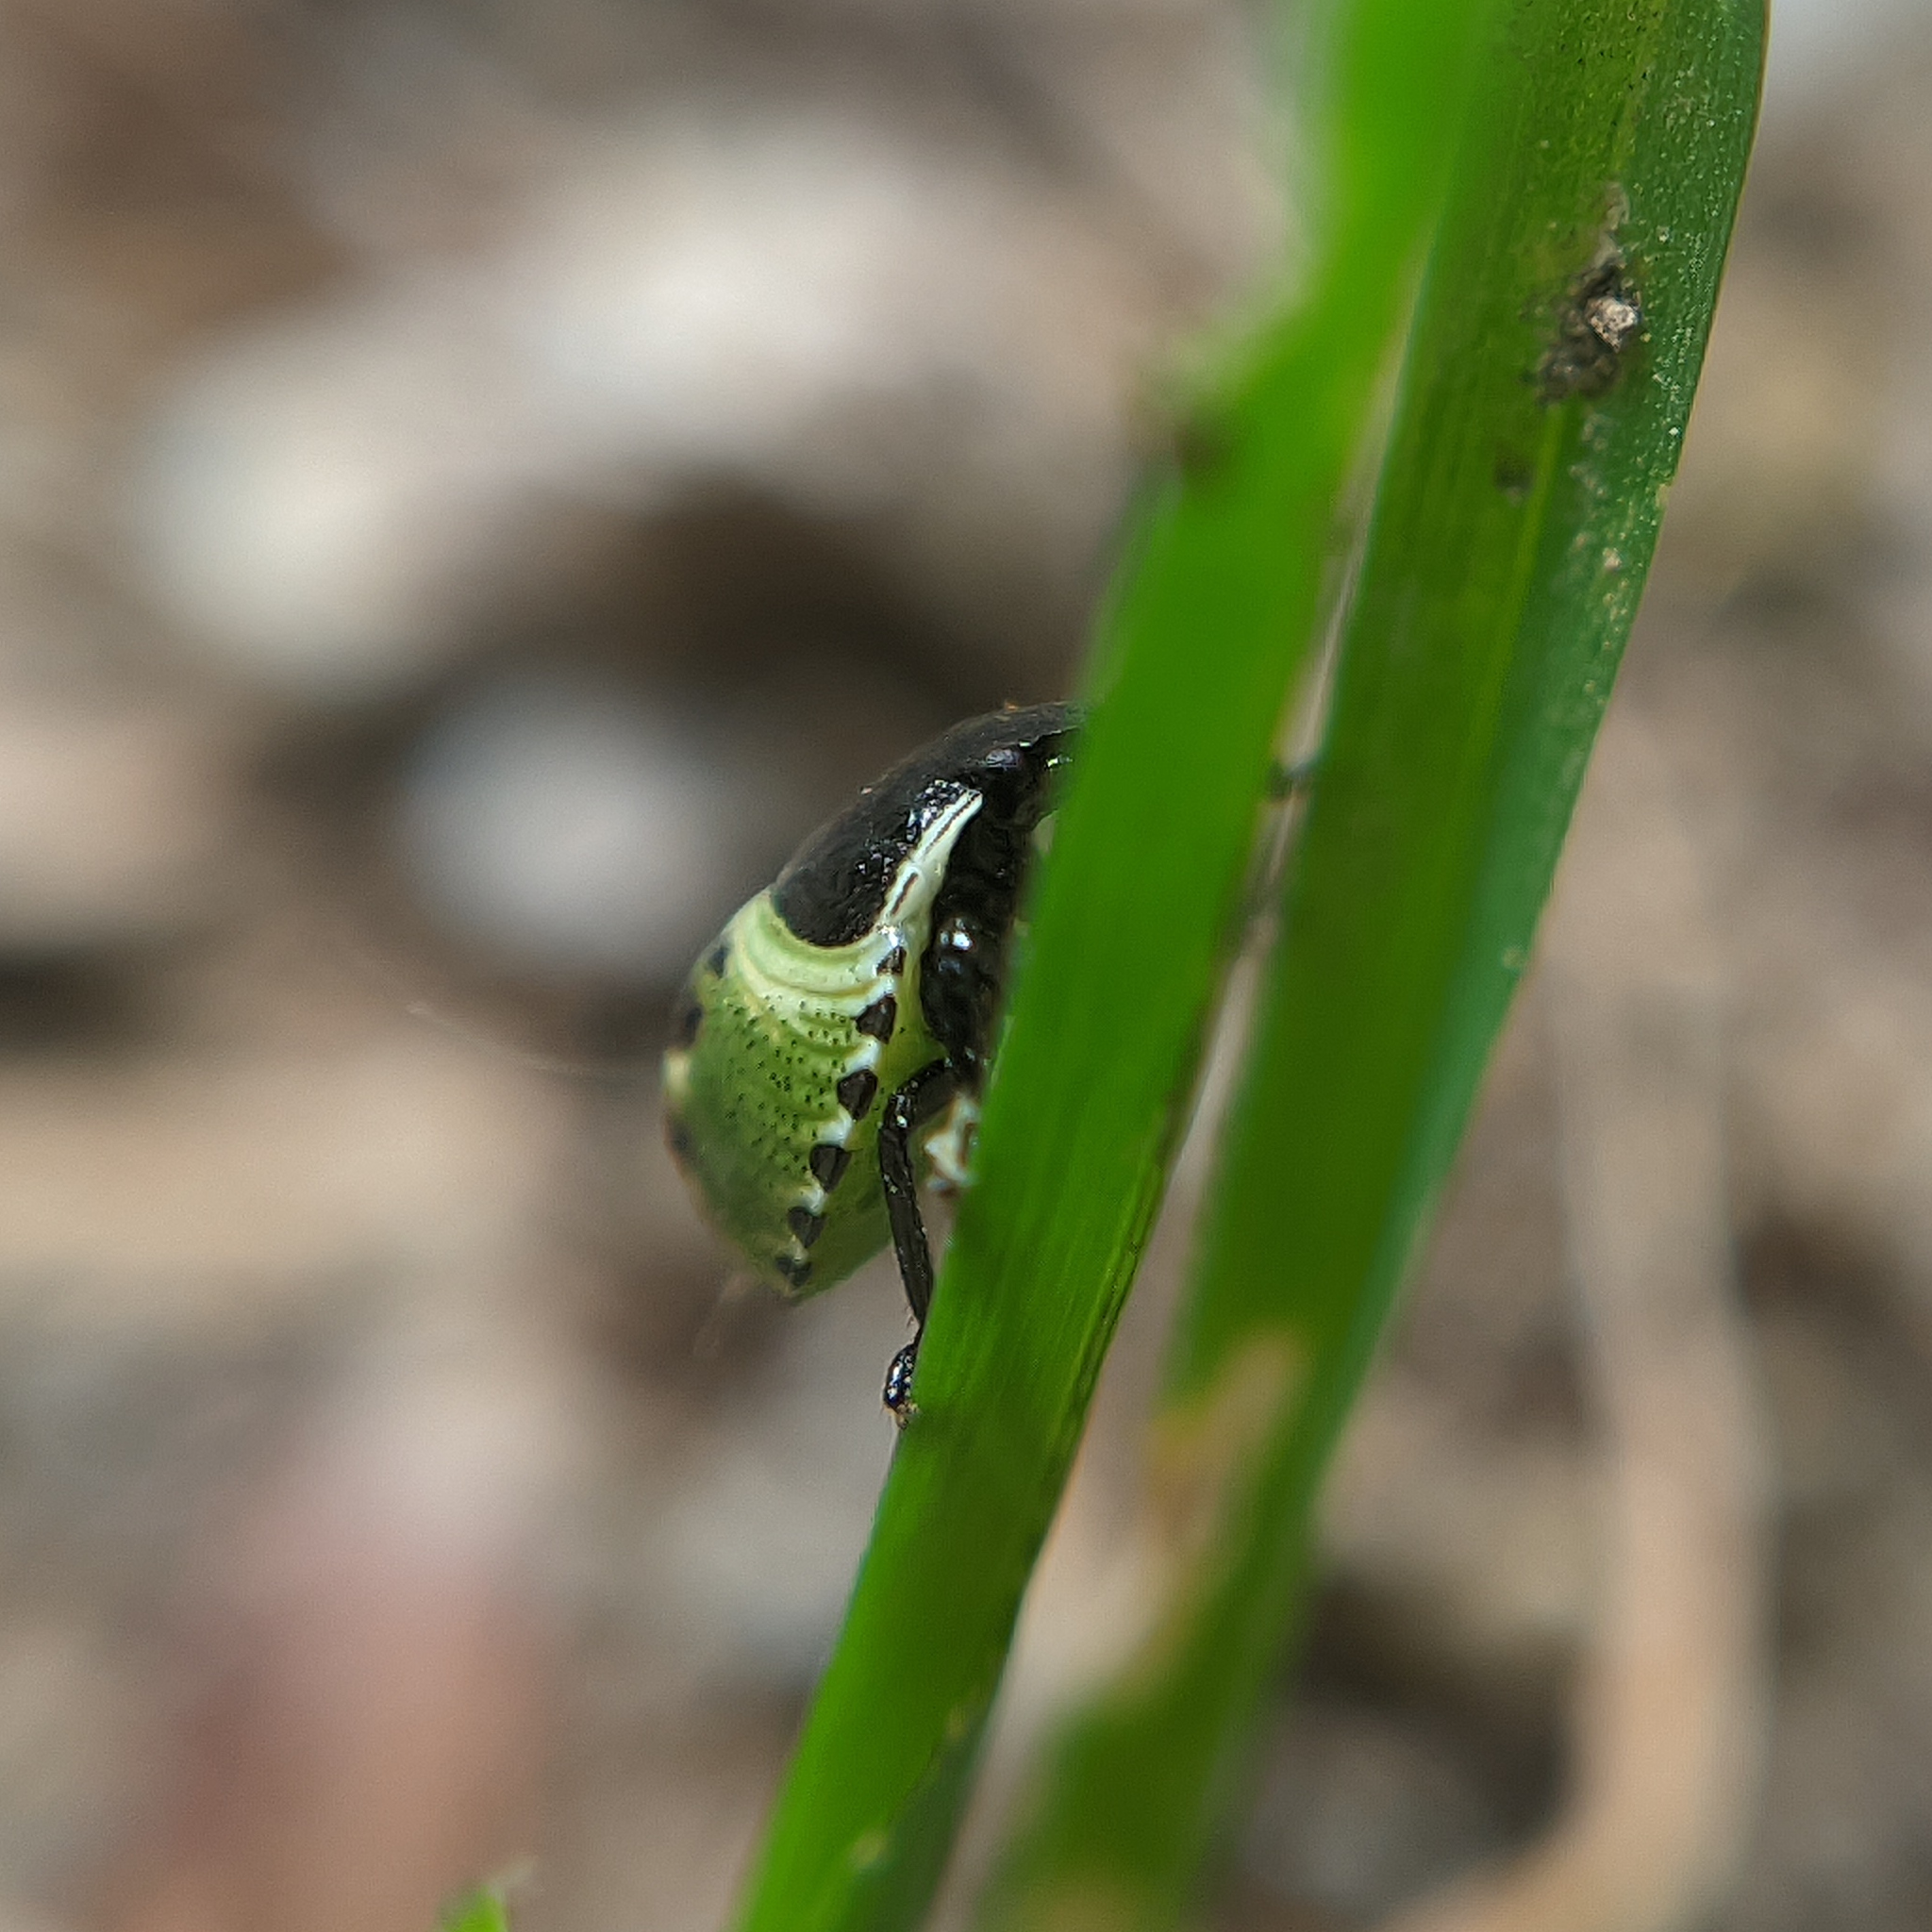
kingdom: Animalia
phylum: Arthropoda
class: Insecta
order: Hemiptera
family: Pentatomidae
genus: Palomena
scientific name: Palomena prasina
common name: Green shieldbug
